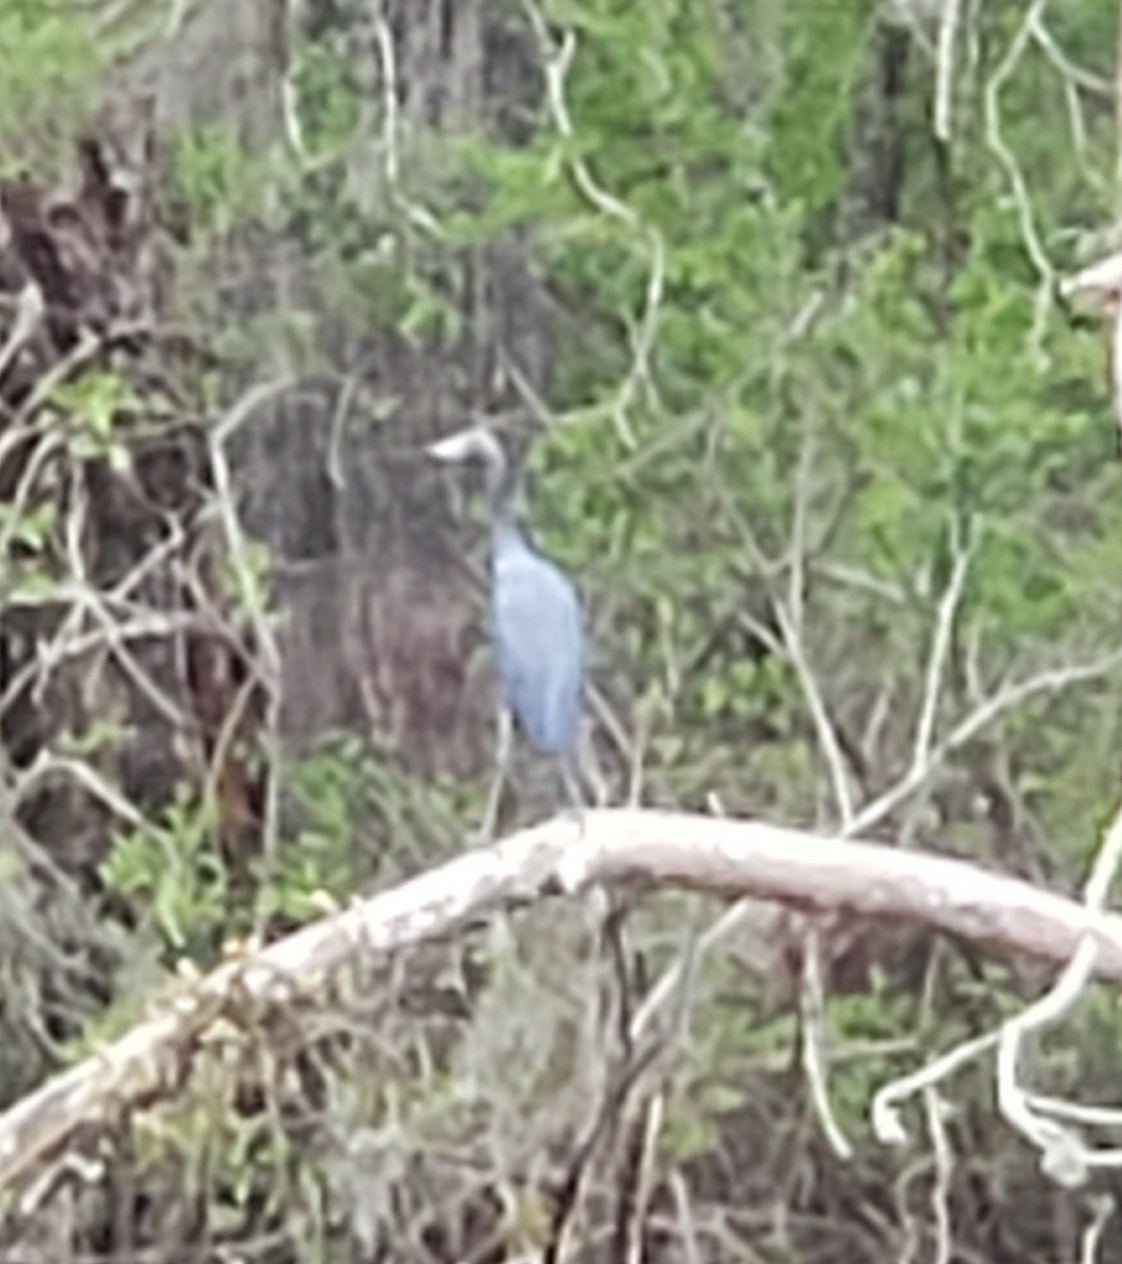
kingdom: Animalia
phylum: Chordata
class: Aves
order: Pelecaniformes
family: Ardeidae
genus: Egretta
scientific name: Egretta caerulea
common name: Little blue heron
